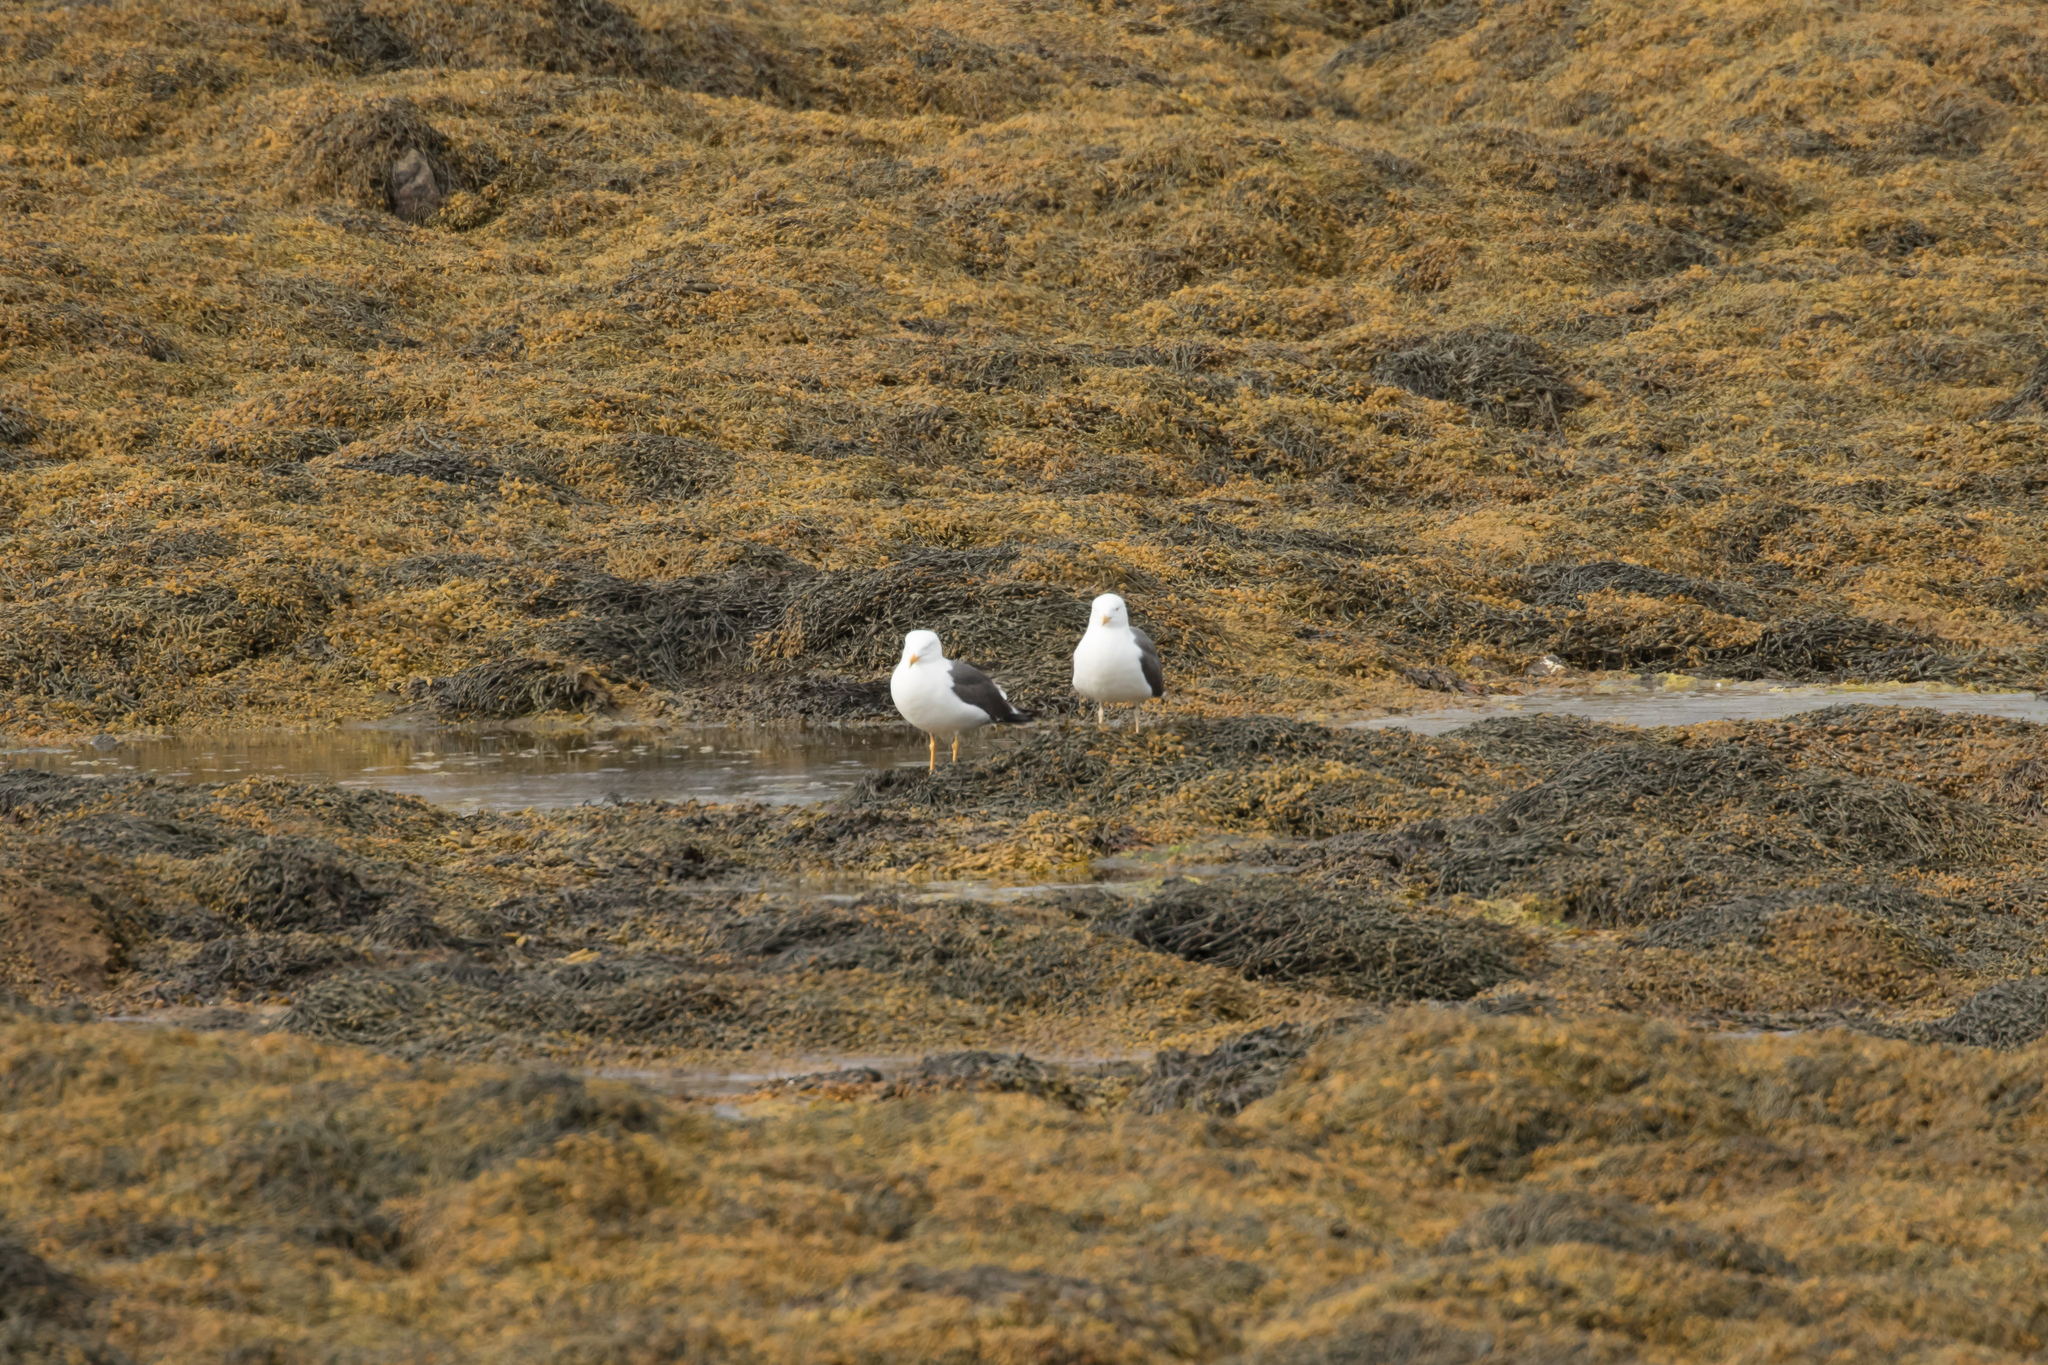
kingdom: Animalia
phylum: Chordata
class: Aves
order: Charadriiformes
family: Laridae
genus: Larus
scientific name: Larus fuscus
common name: Lesser black-backed gull
